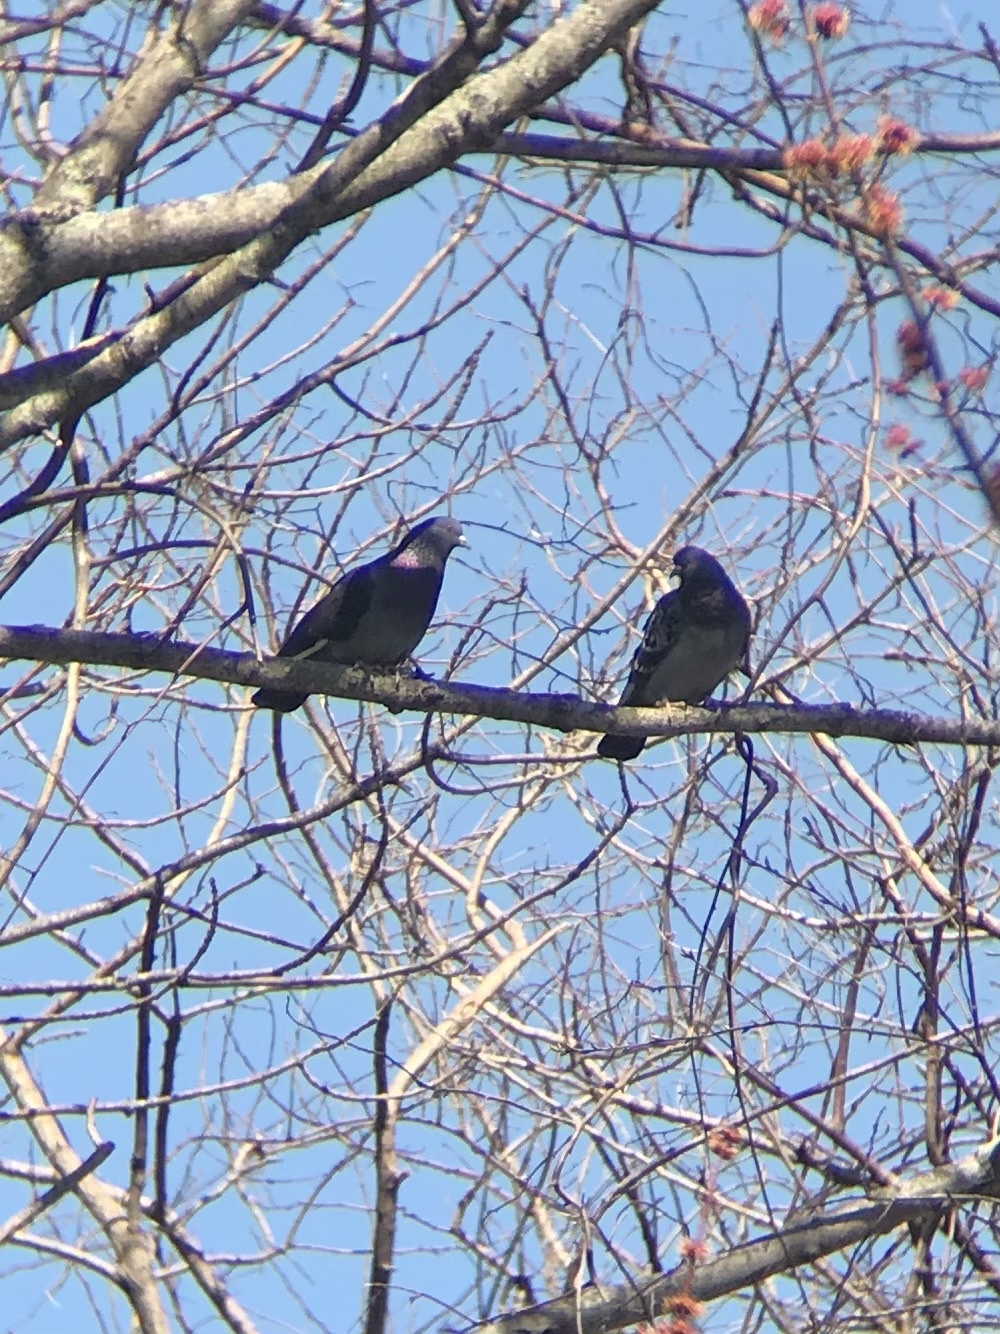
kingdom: Animalia
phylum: Chordata
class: Aves
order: Columbiformes
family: Columbidae
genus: Columba
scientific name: Columba livia
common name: Rock pigeon
